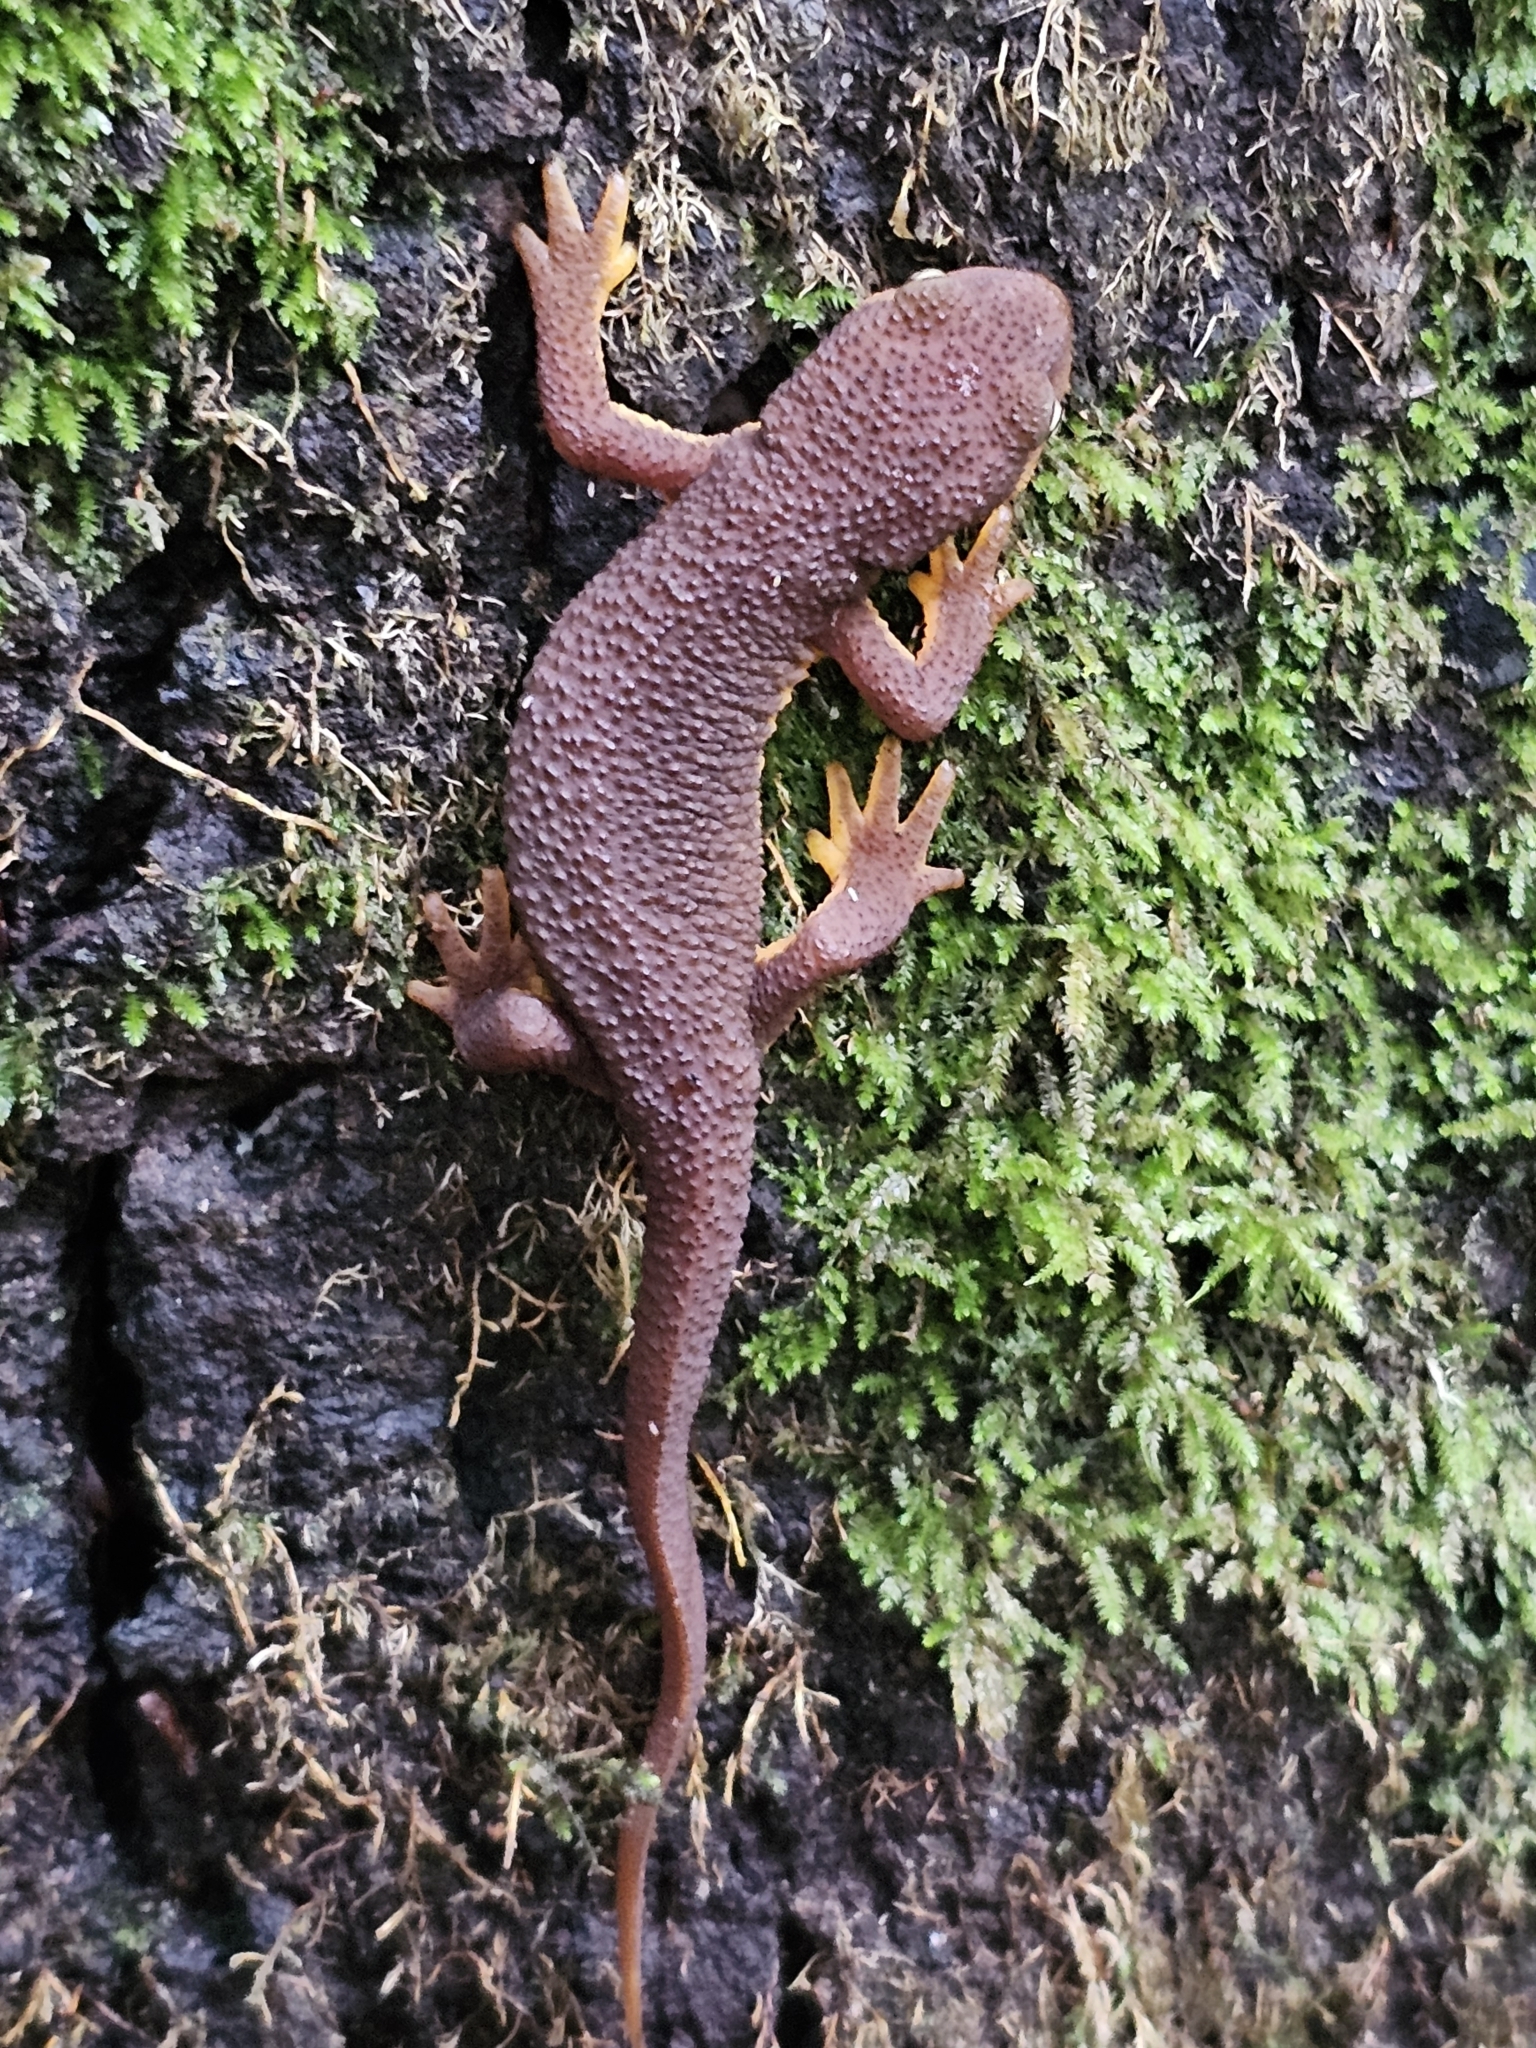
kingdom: Animalia
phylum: Chordata
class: Amphibia
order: Caudata
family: Salamandridae
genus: Taricha
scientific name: Taricha granulosa
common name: Roughskin newt
